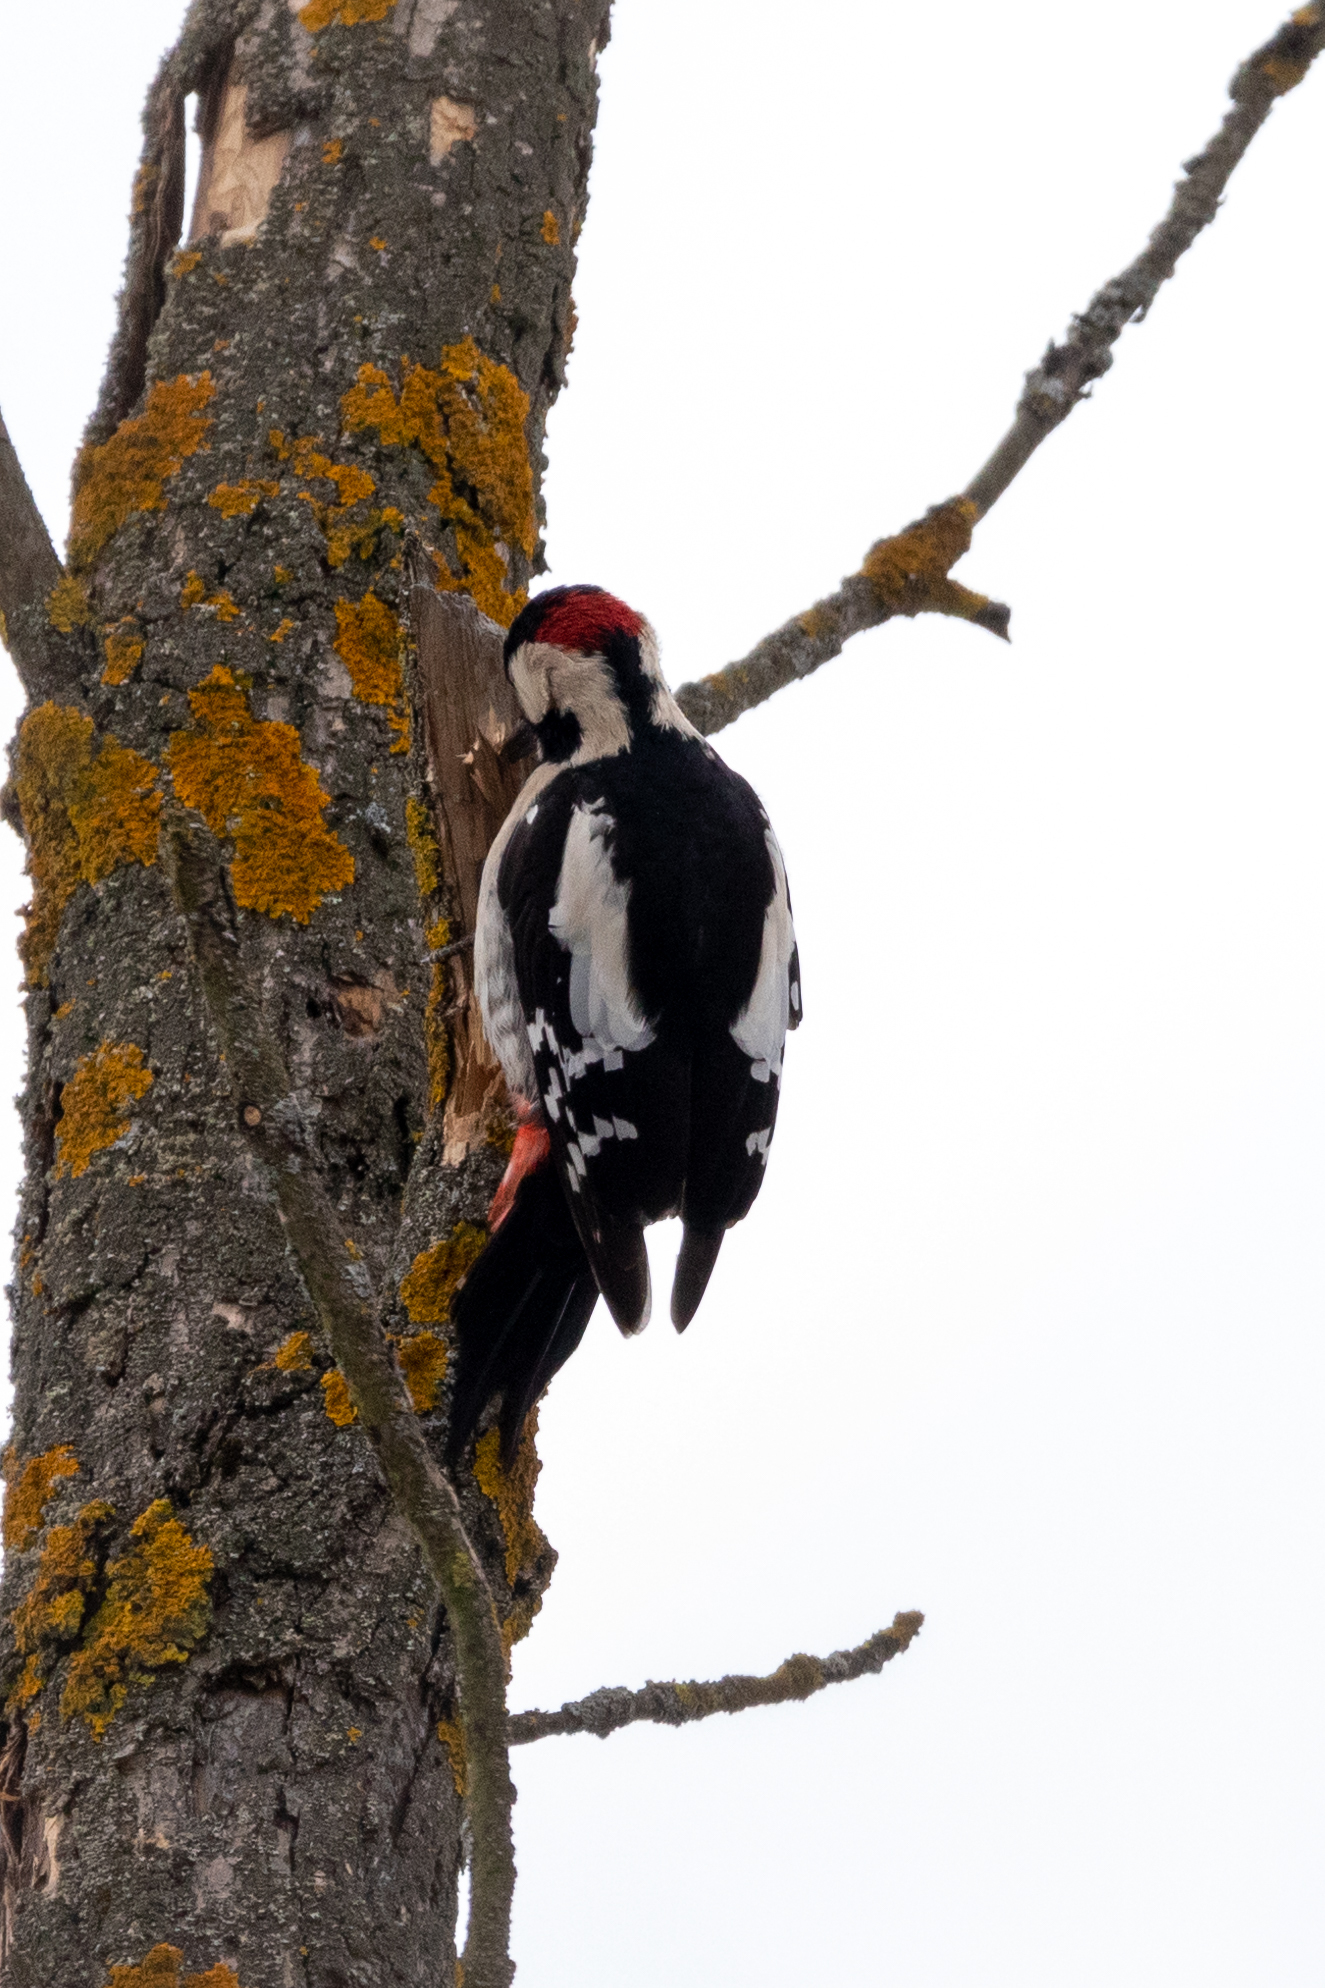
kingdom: Animalia
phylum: Chordata
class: Aves
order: Piciformes
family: Picidae
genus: Dendrocopos
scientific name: Dendrocopos syriacus
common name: Syrian woodpecker
